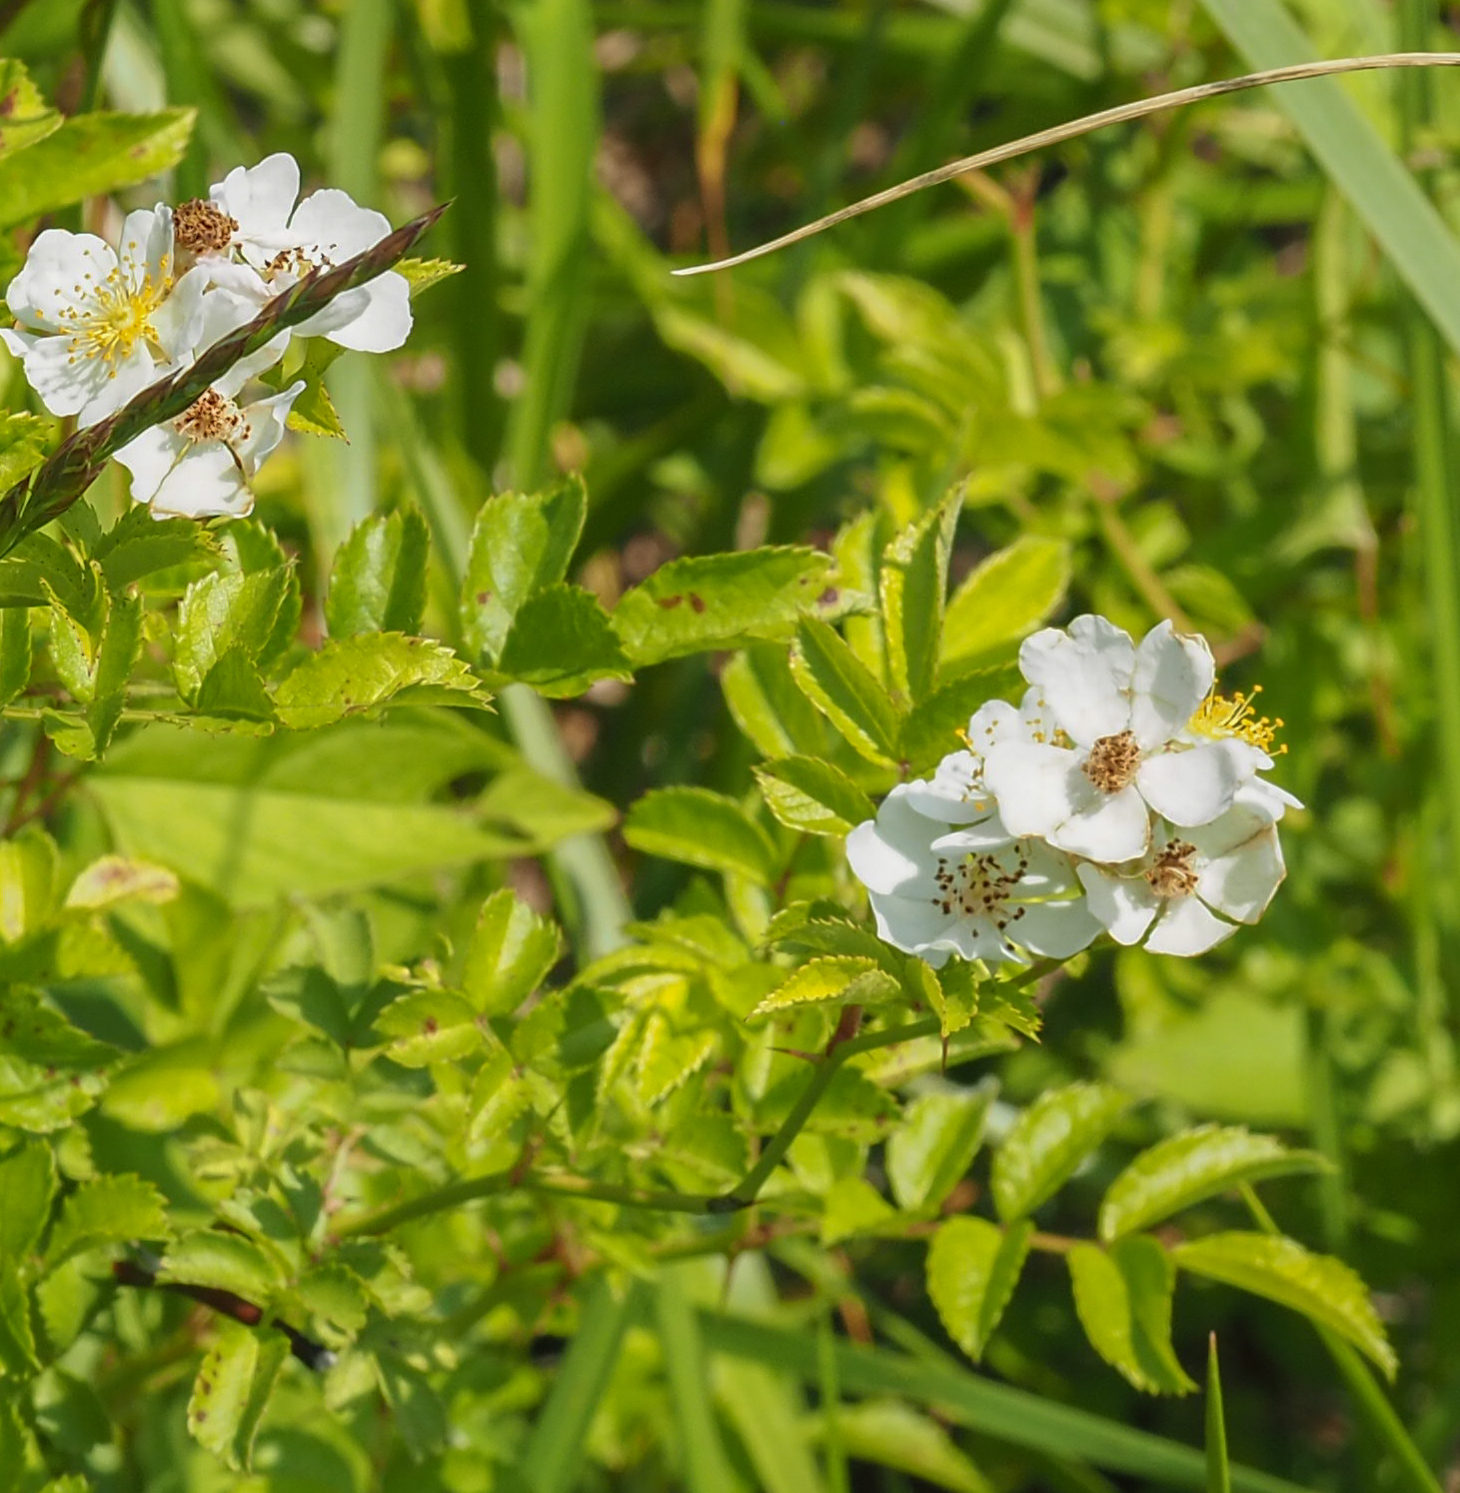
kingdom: Plantae
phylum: Tracheophyta
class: Magnoliopsida
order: Rosales
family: Rosaceae
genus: Rosa
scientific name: Rosa multiflora
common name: Multiflora rose
